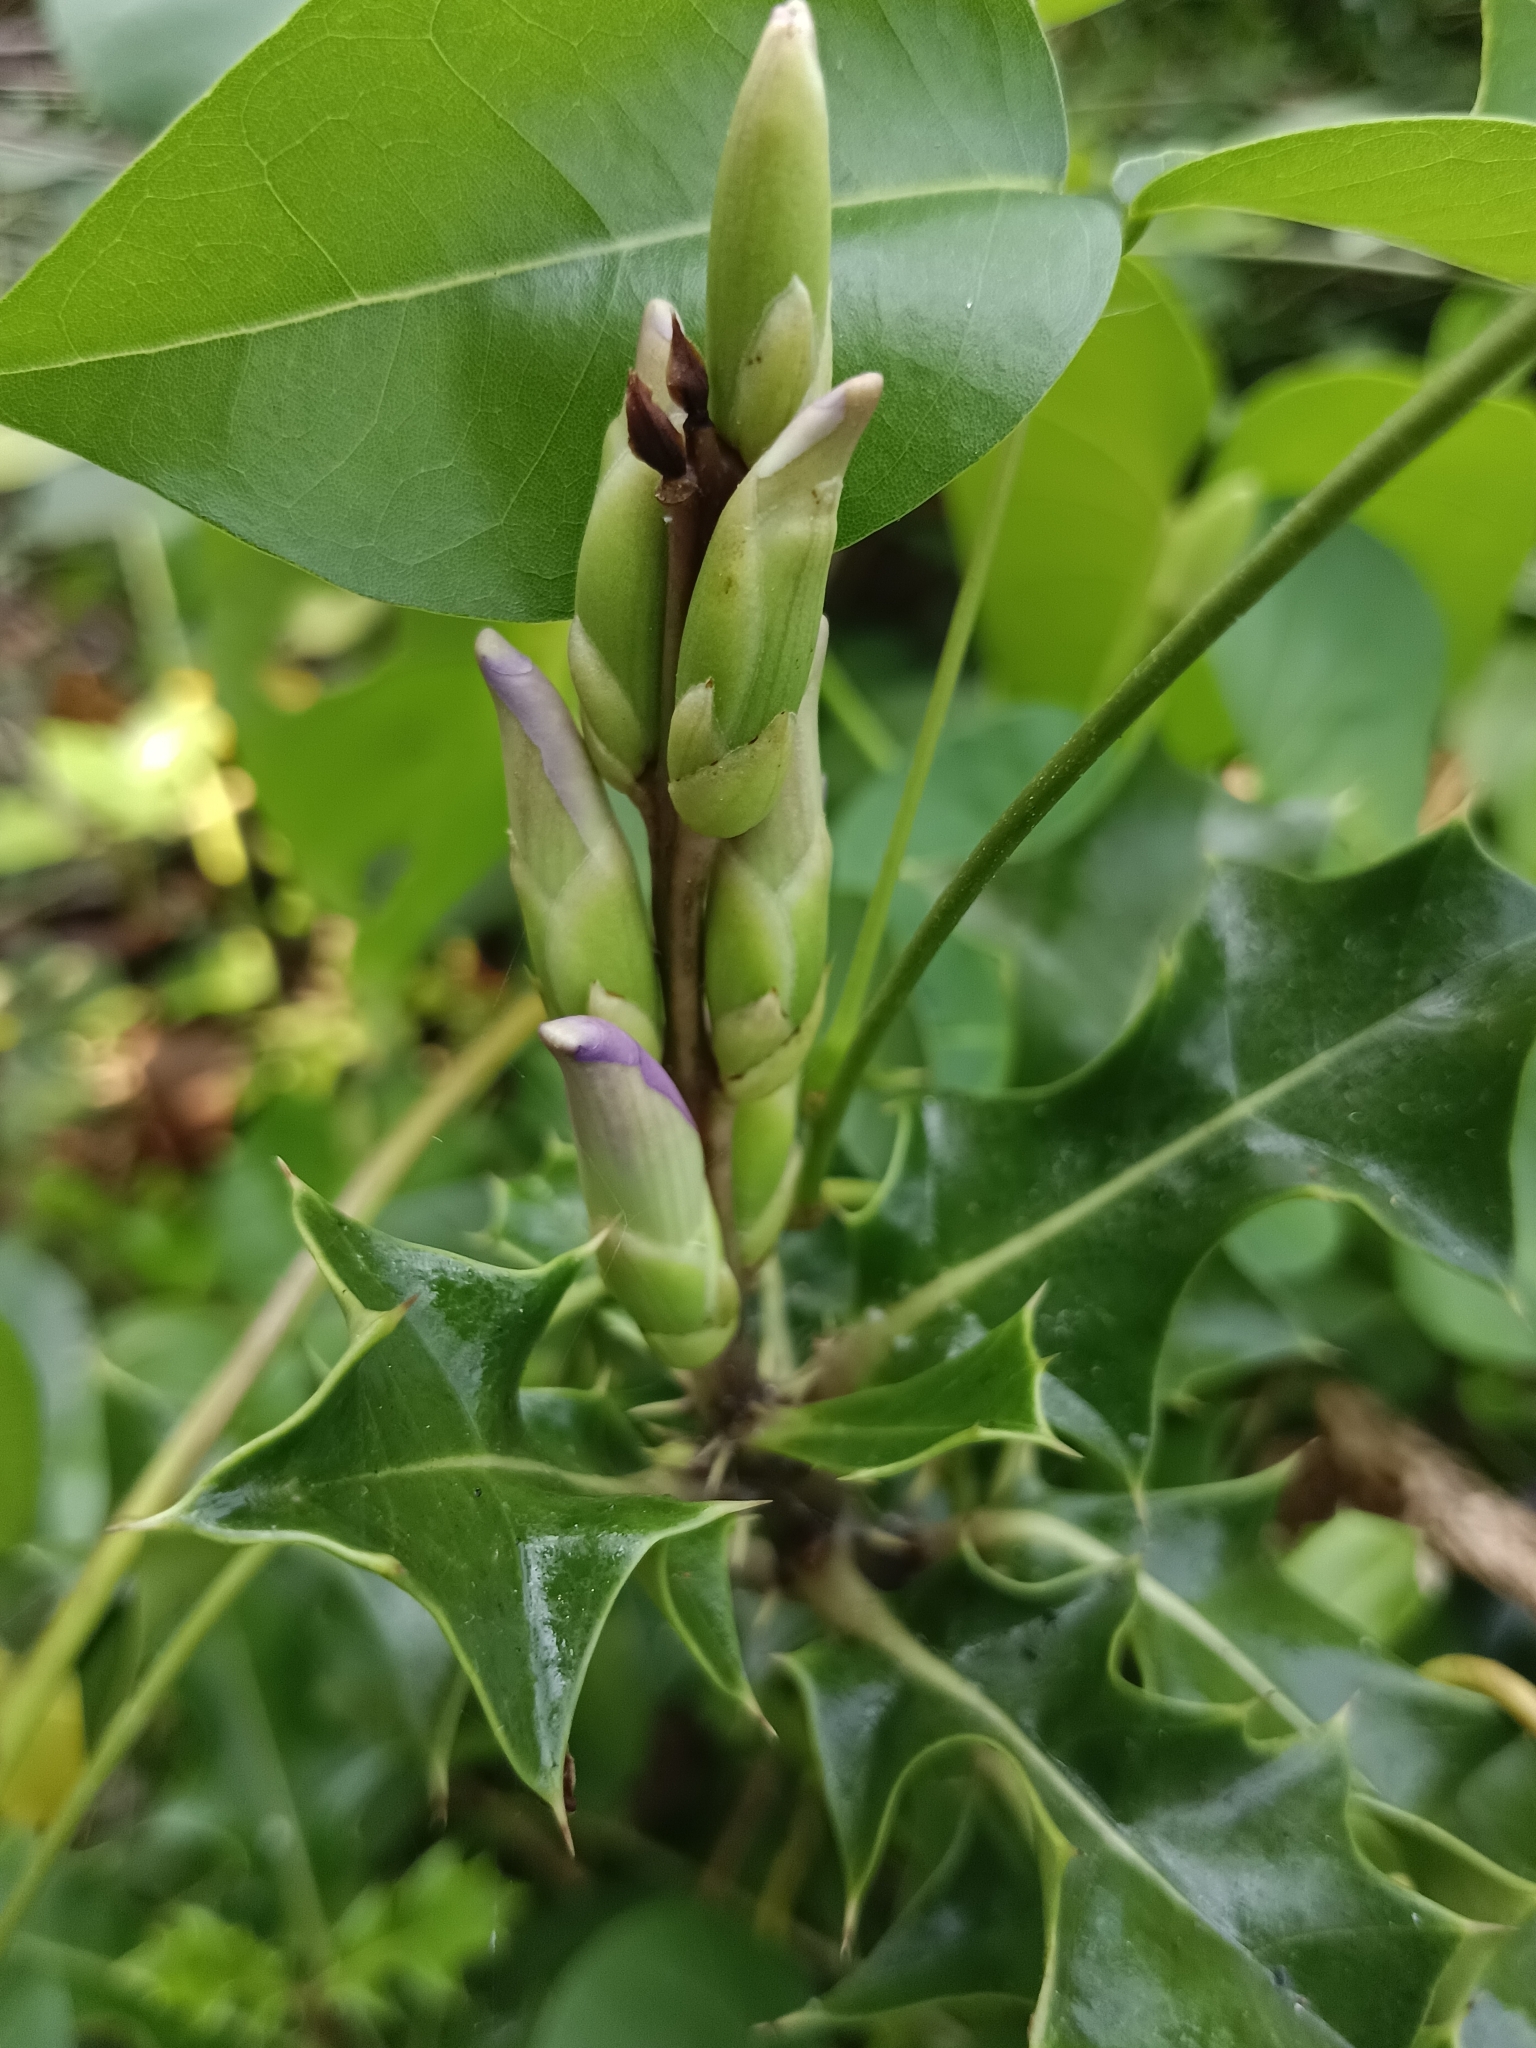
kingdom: Plantae
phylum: Tracheophyta
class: Magnoliopsida
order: Lamiales
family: Acanthaceae
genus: Acanthus
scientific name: Acanthus ilicifolius
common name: Holy mangrove
